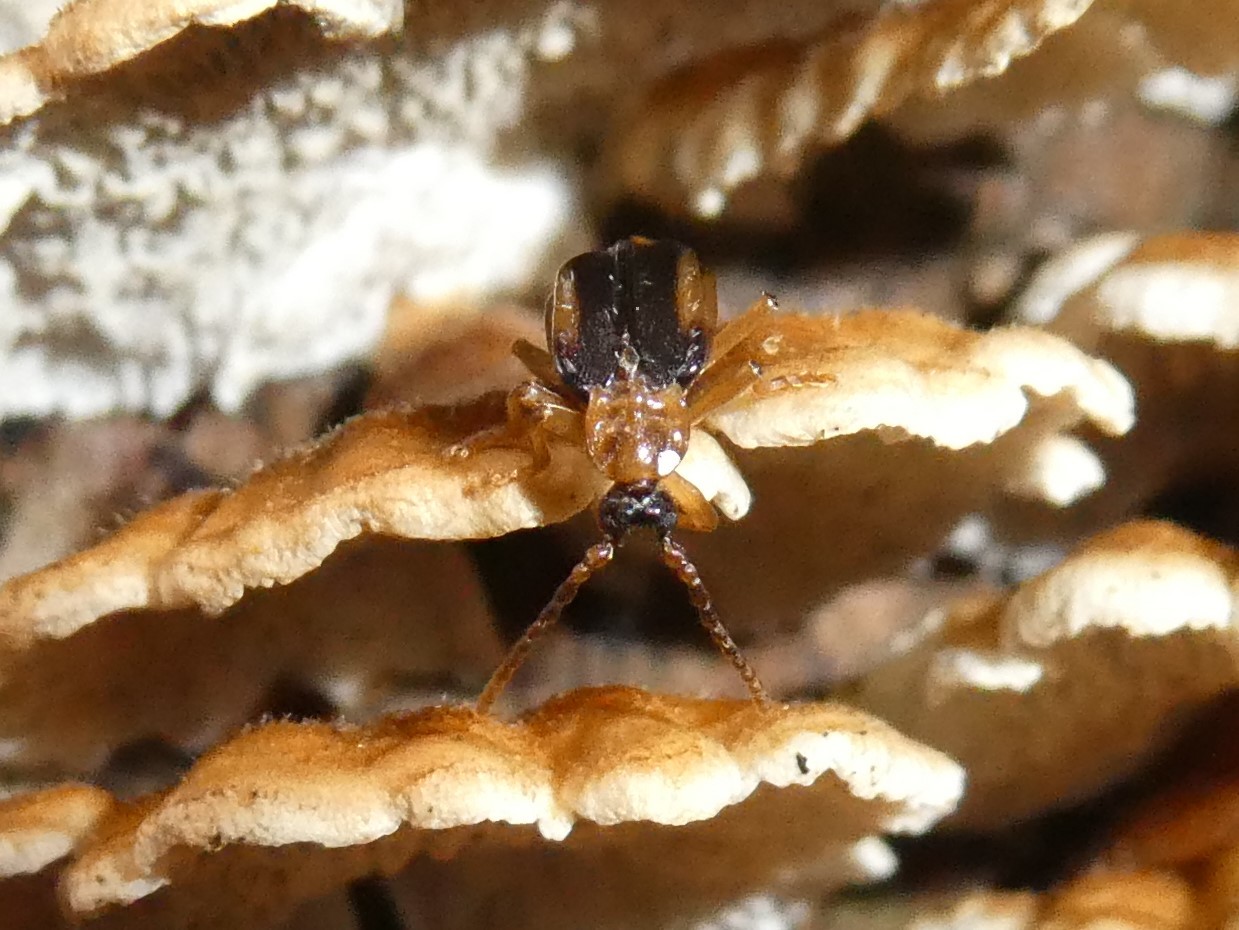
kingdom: Animalia
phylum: Arthropoda
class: Insecta
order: Coleoptera
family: Anthicidae
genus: Ischalia
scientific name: Ischalia costata
